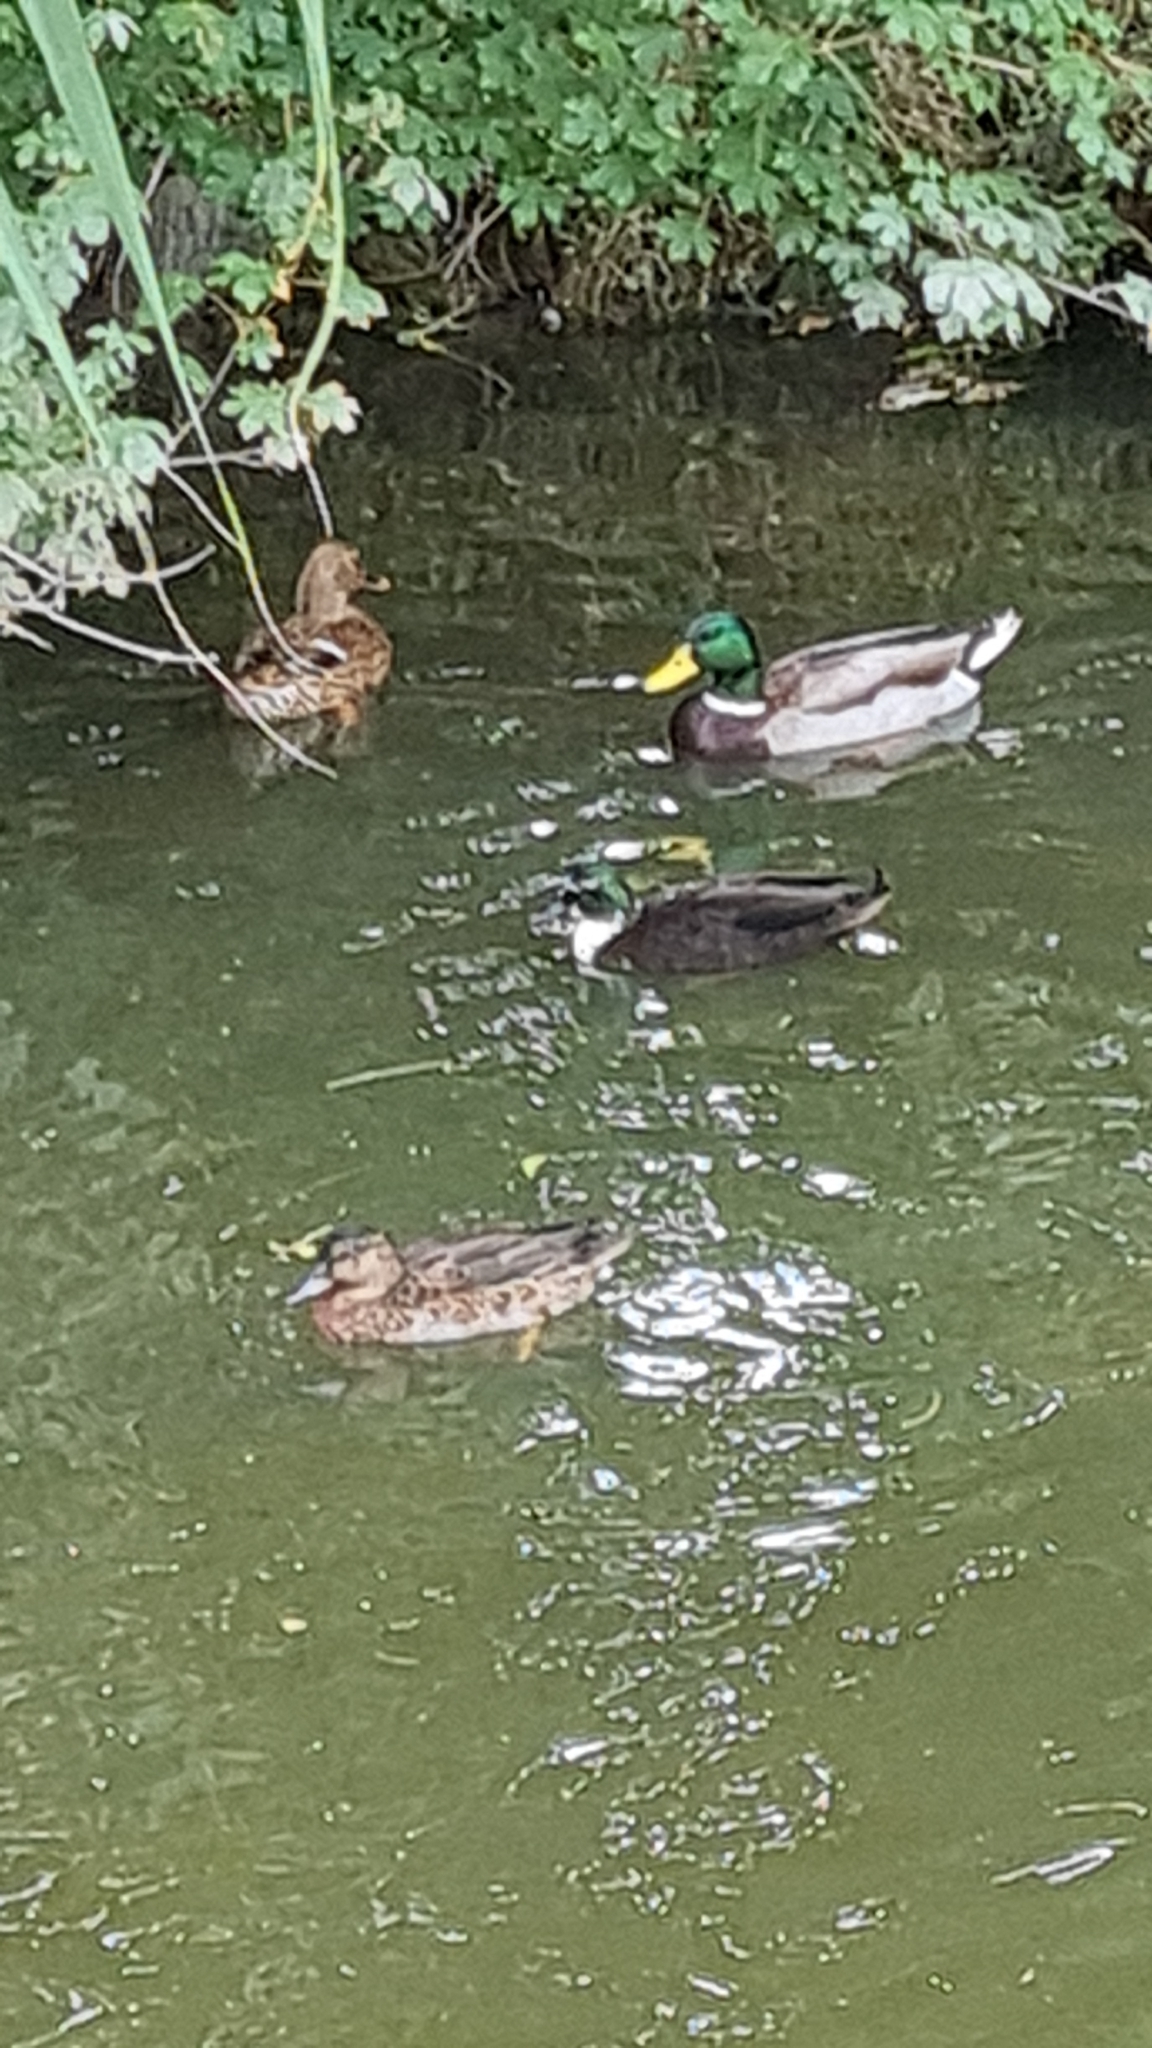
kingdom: Animalia
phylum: Chordata
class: Aves
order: Anseriformes
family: Anatidae
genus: Anas
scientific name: Anas platyrhynchos
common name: Mallard
